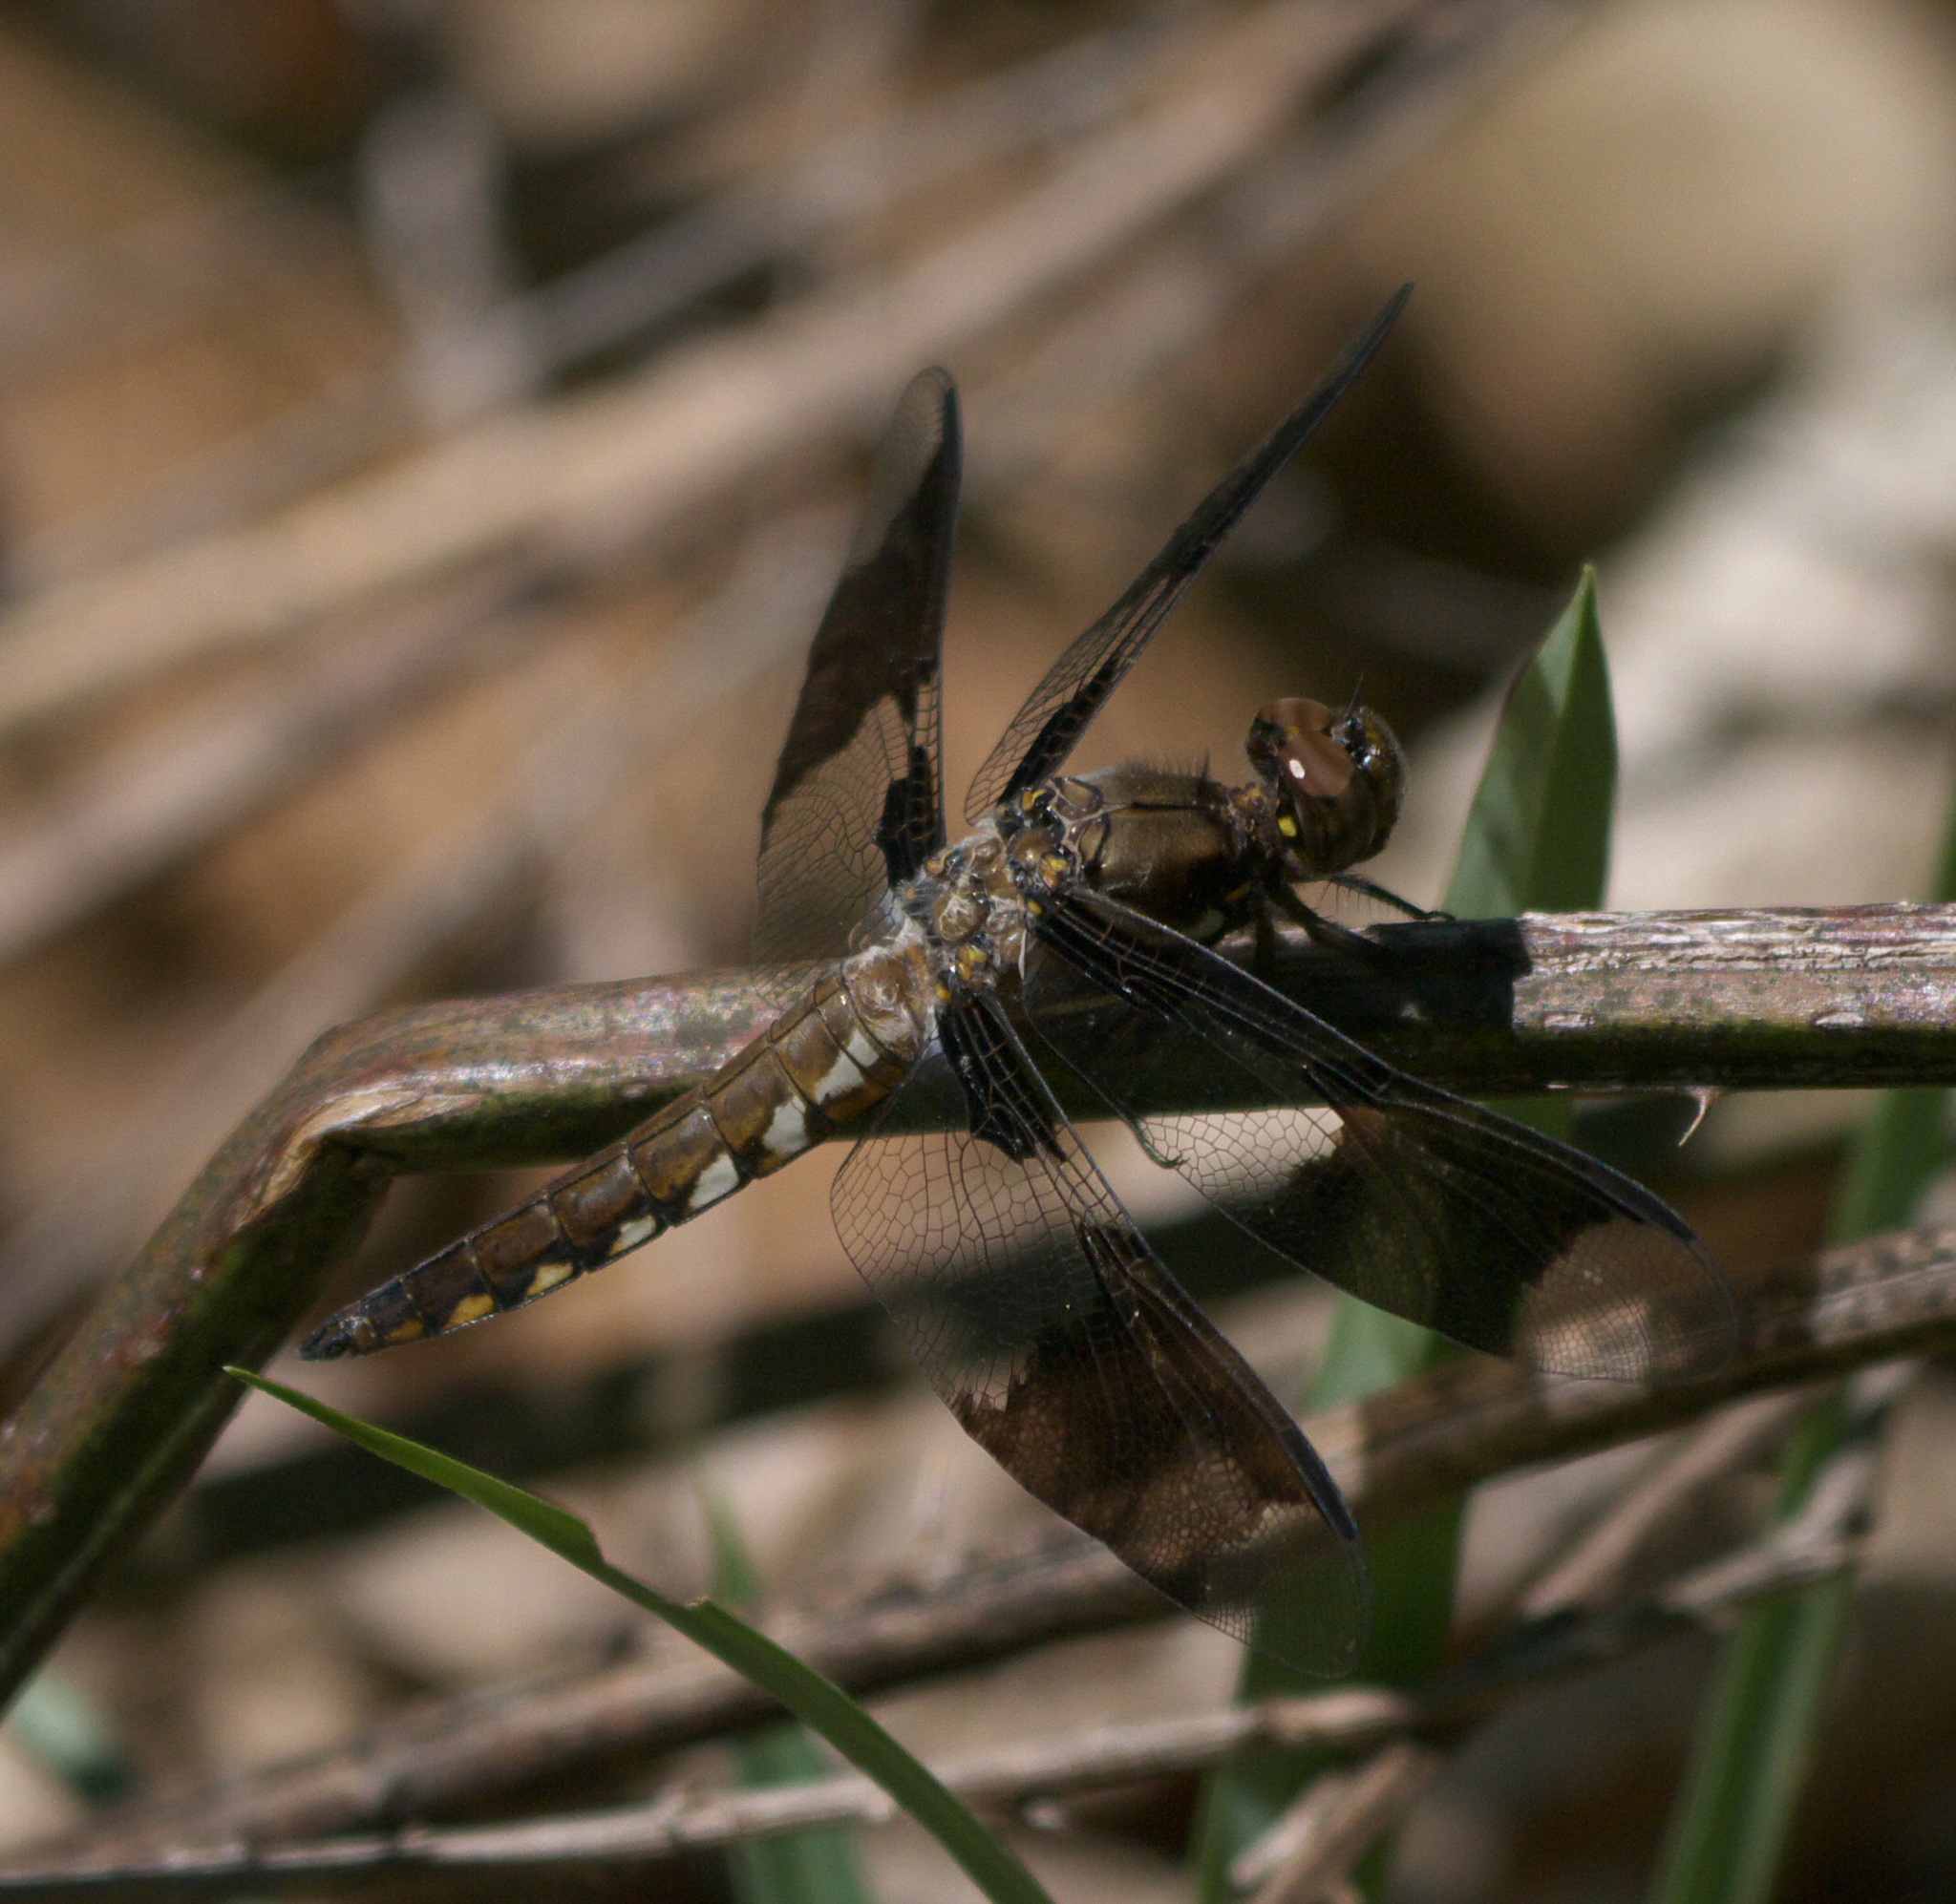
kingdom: Animalia
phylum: Arthropoda
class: Insecta
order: Odonata
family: Libellulidae
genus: Plathemis
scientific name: Plathemis lydia
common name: Common whitetail
